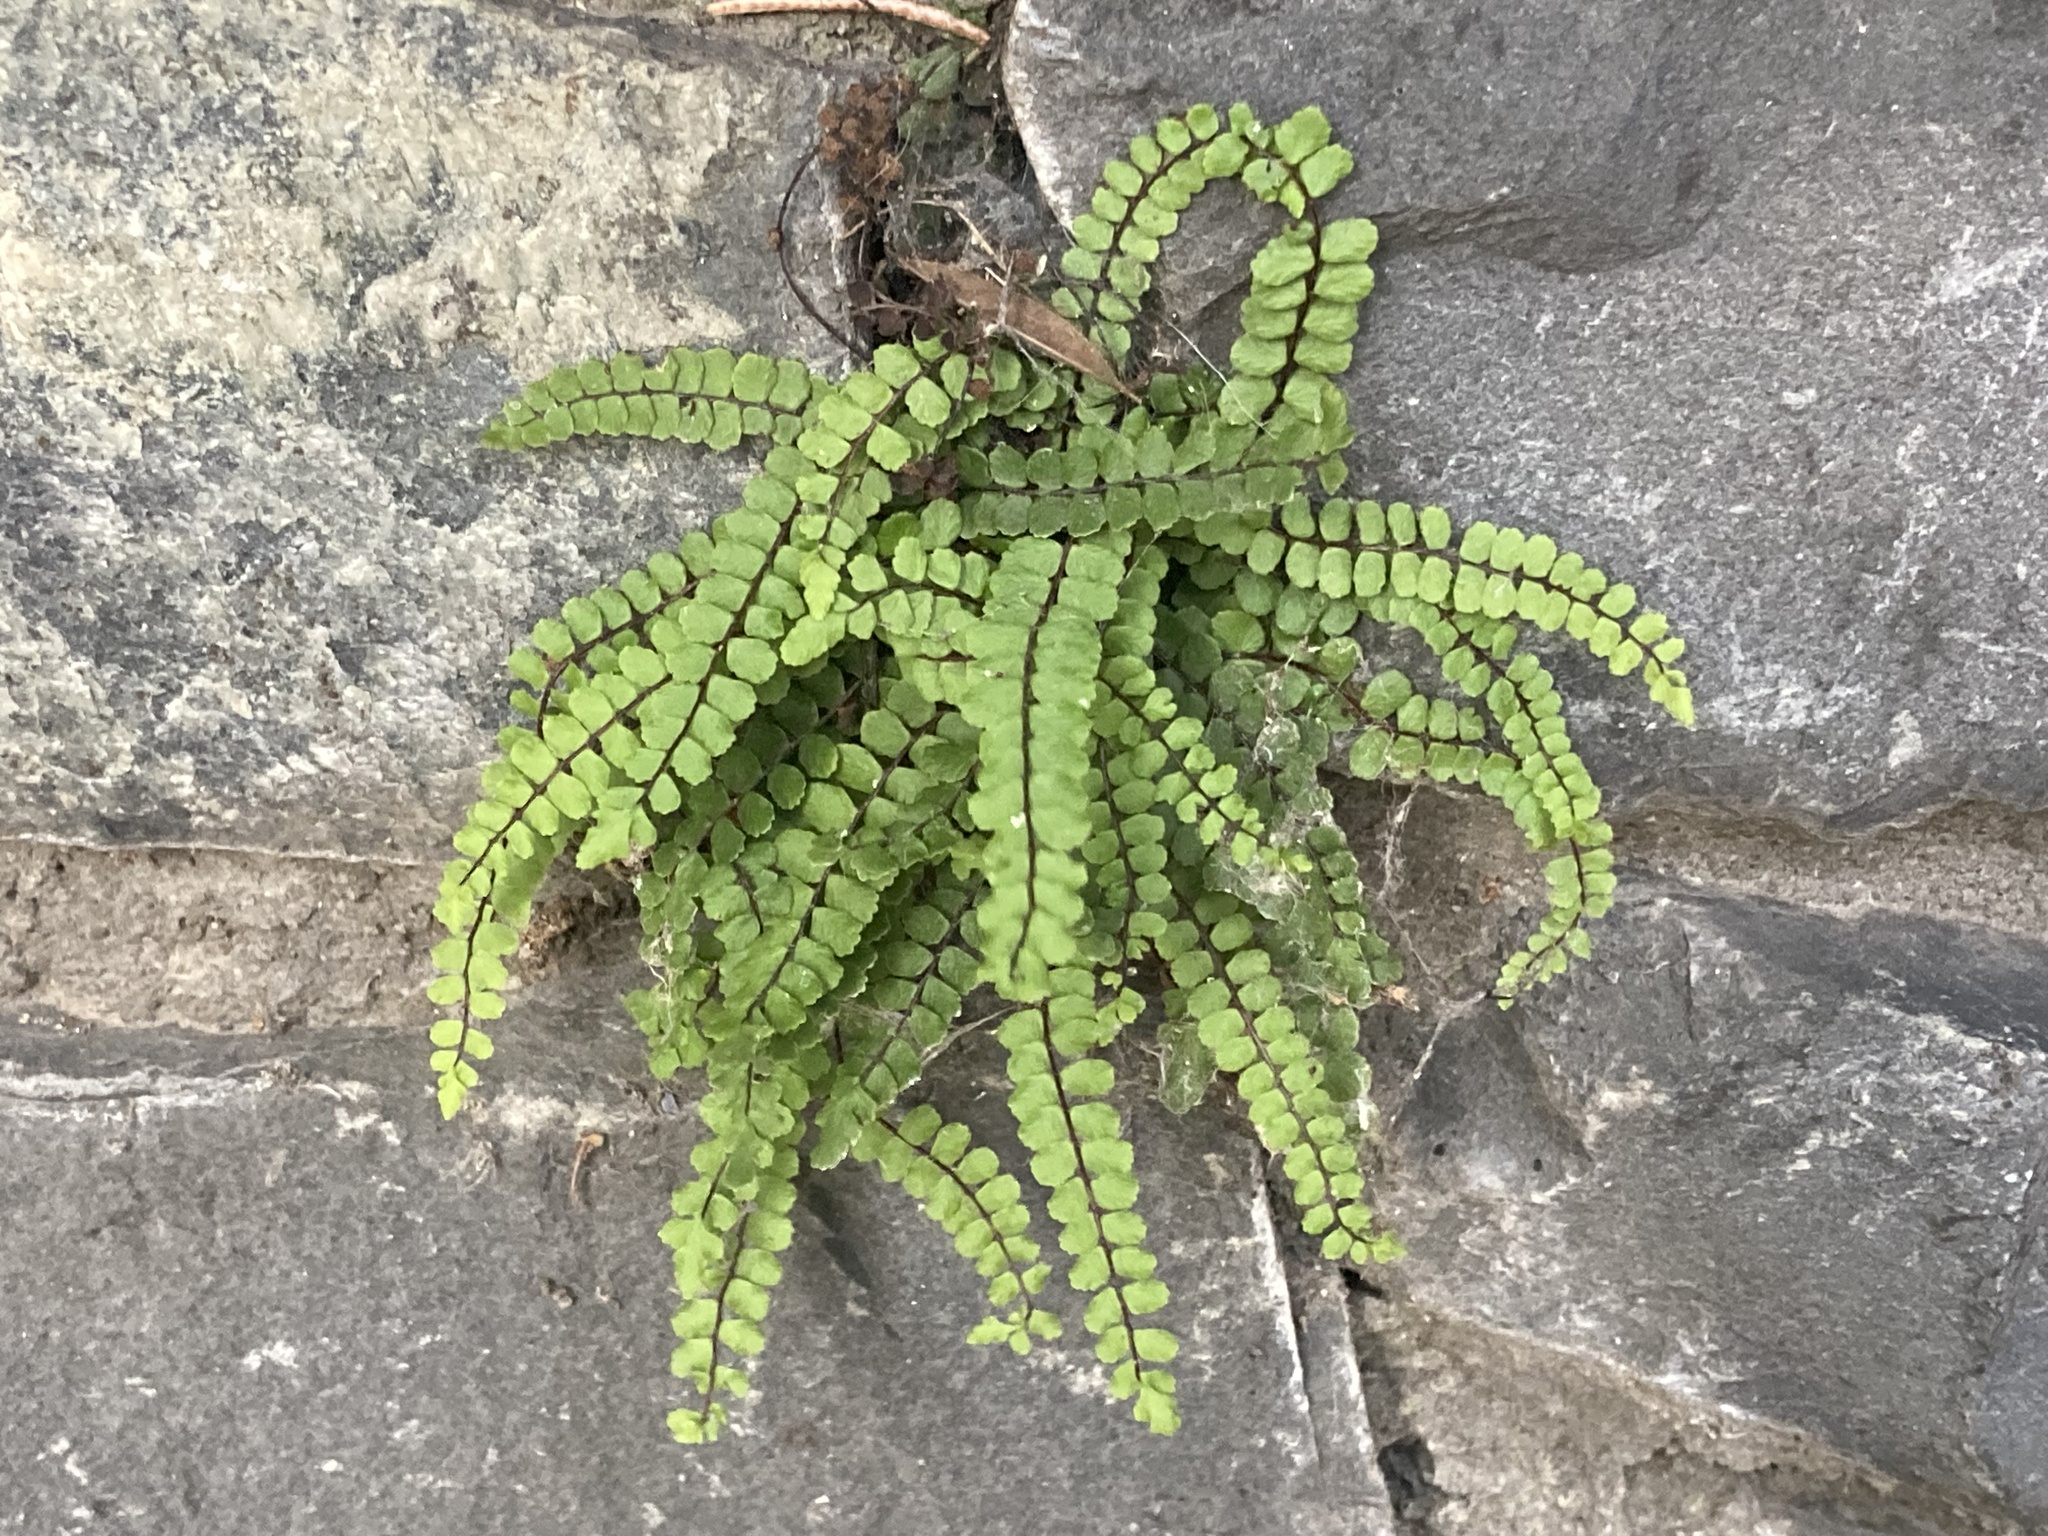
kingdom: Plantae
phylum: Tracheophyta
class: Polypodiopsida
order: Polypodiales
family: Aspleniaceae
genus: Asplenium
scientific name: Asplenium trichomanes
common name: Maidenhair spleenwort
